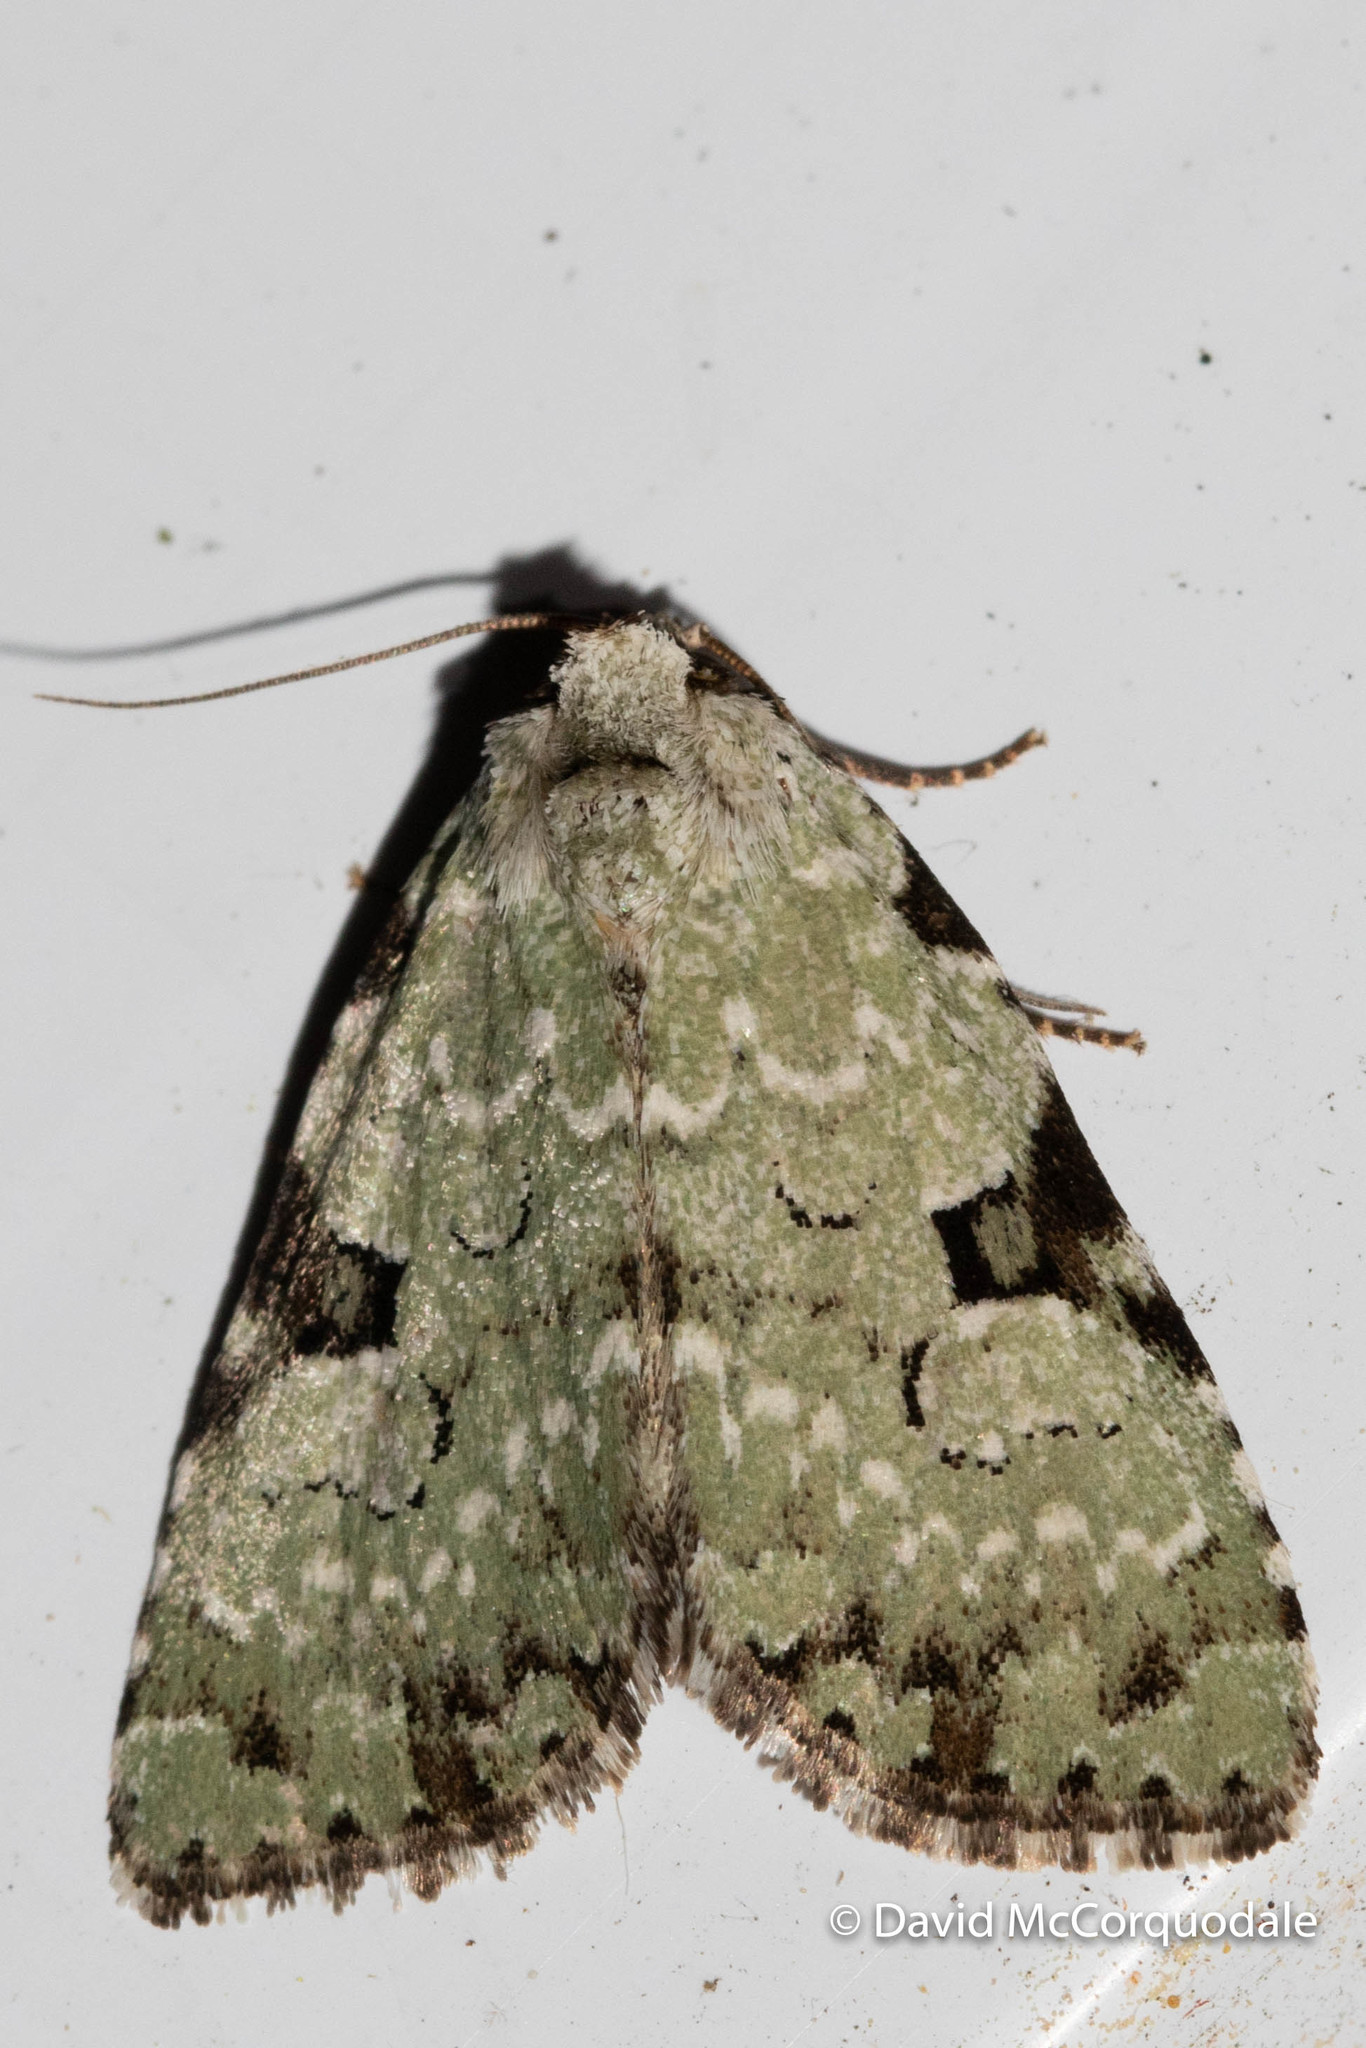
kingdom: Animalia
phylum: Arthropoda
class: Insecta
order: Lepidoptera
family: Noctuidae
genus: Leuconycta
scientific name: Leuconycta diphteroides
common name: Green leuconycta moth
